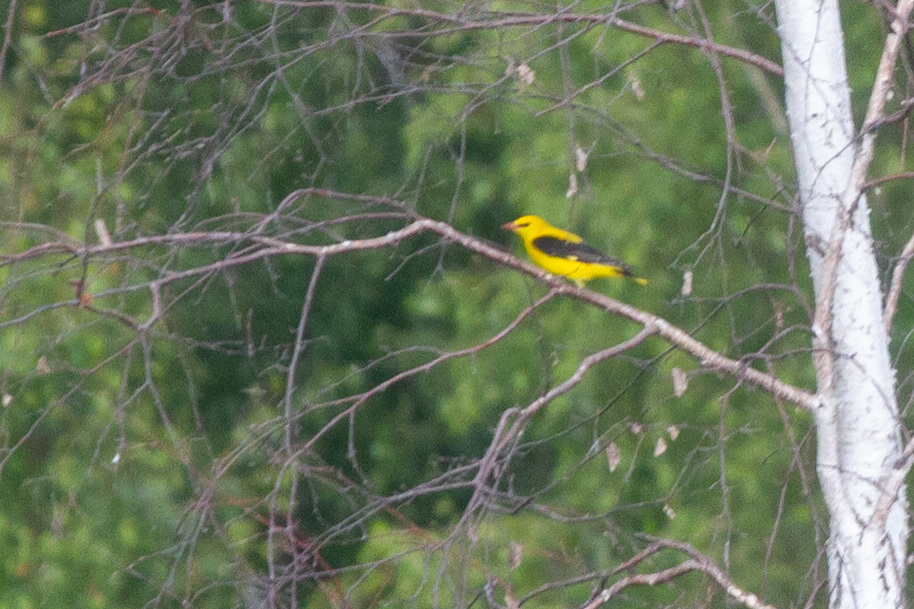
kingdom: Animalia
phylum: Chordata
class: Aves
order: Passeriformes
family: Oriolidae
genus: Oriolus
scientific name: Oriolus oriolus
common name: Eurasian golden oriole
